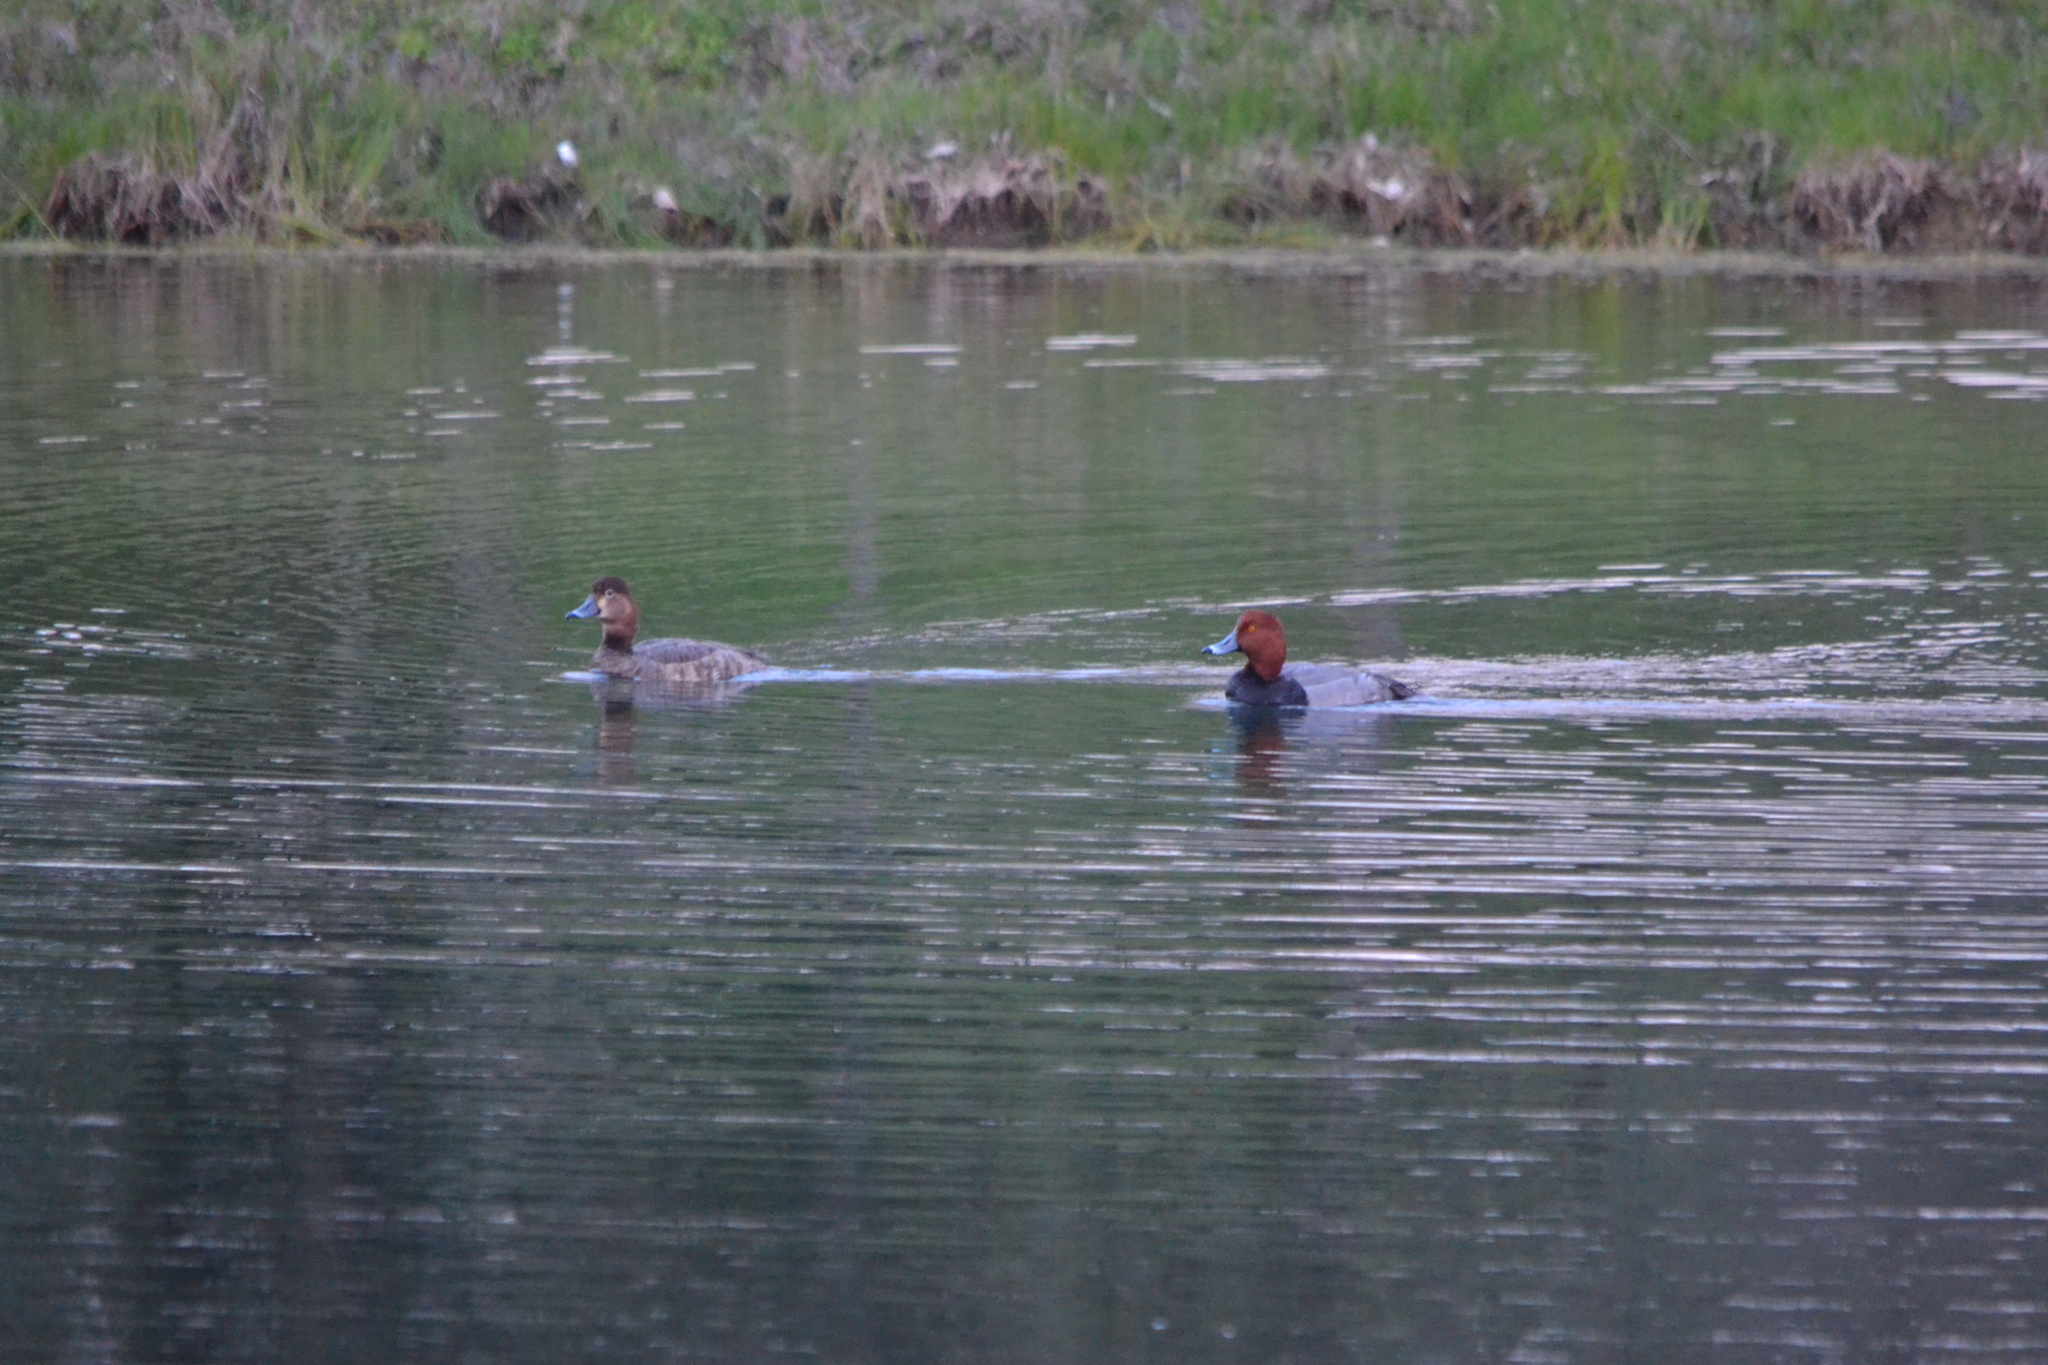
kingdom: Animalia
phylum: Chordata
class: Aves
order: Anseriformes
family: Anatidae
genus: Aythya
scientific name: Aythya americana
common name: Redhead
